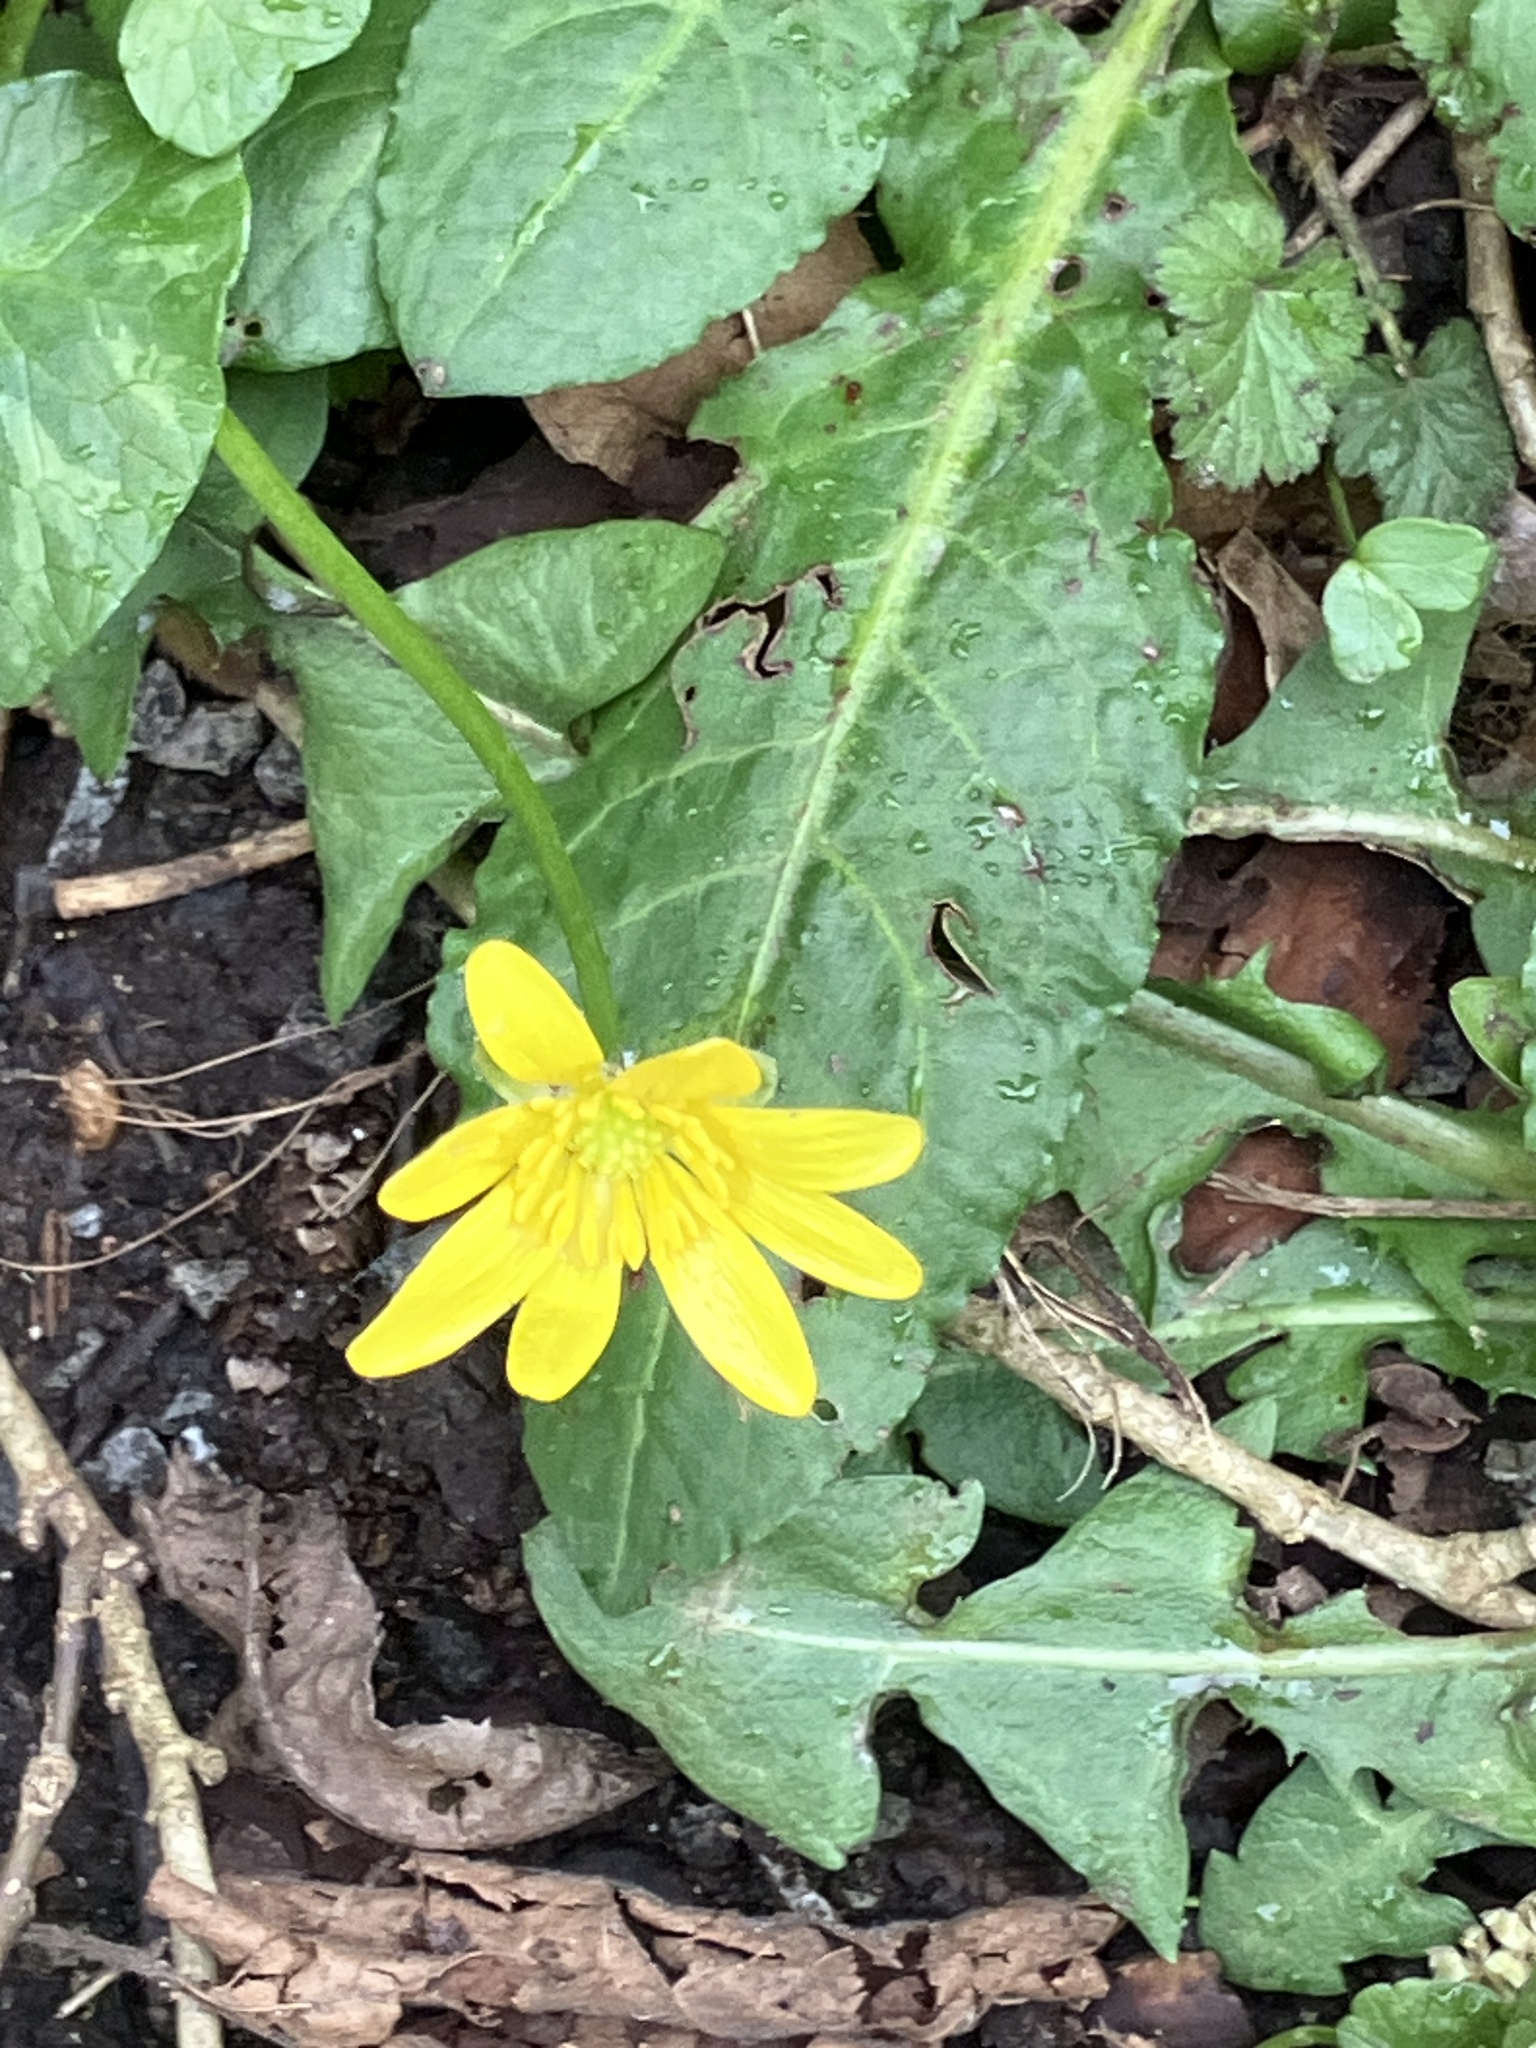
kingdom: Plantae
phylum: Tracheophyta
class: Magnoliopsida
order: Ranunculales
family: Ranunculaceae
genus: Ficaria
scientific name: Ficaria verna
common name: Lesser celandine
